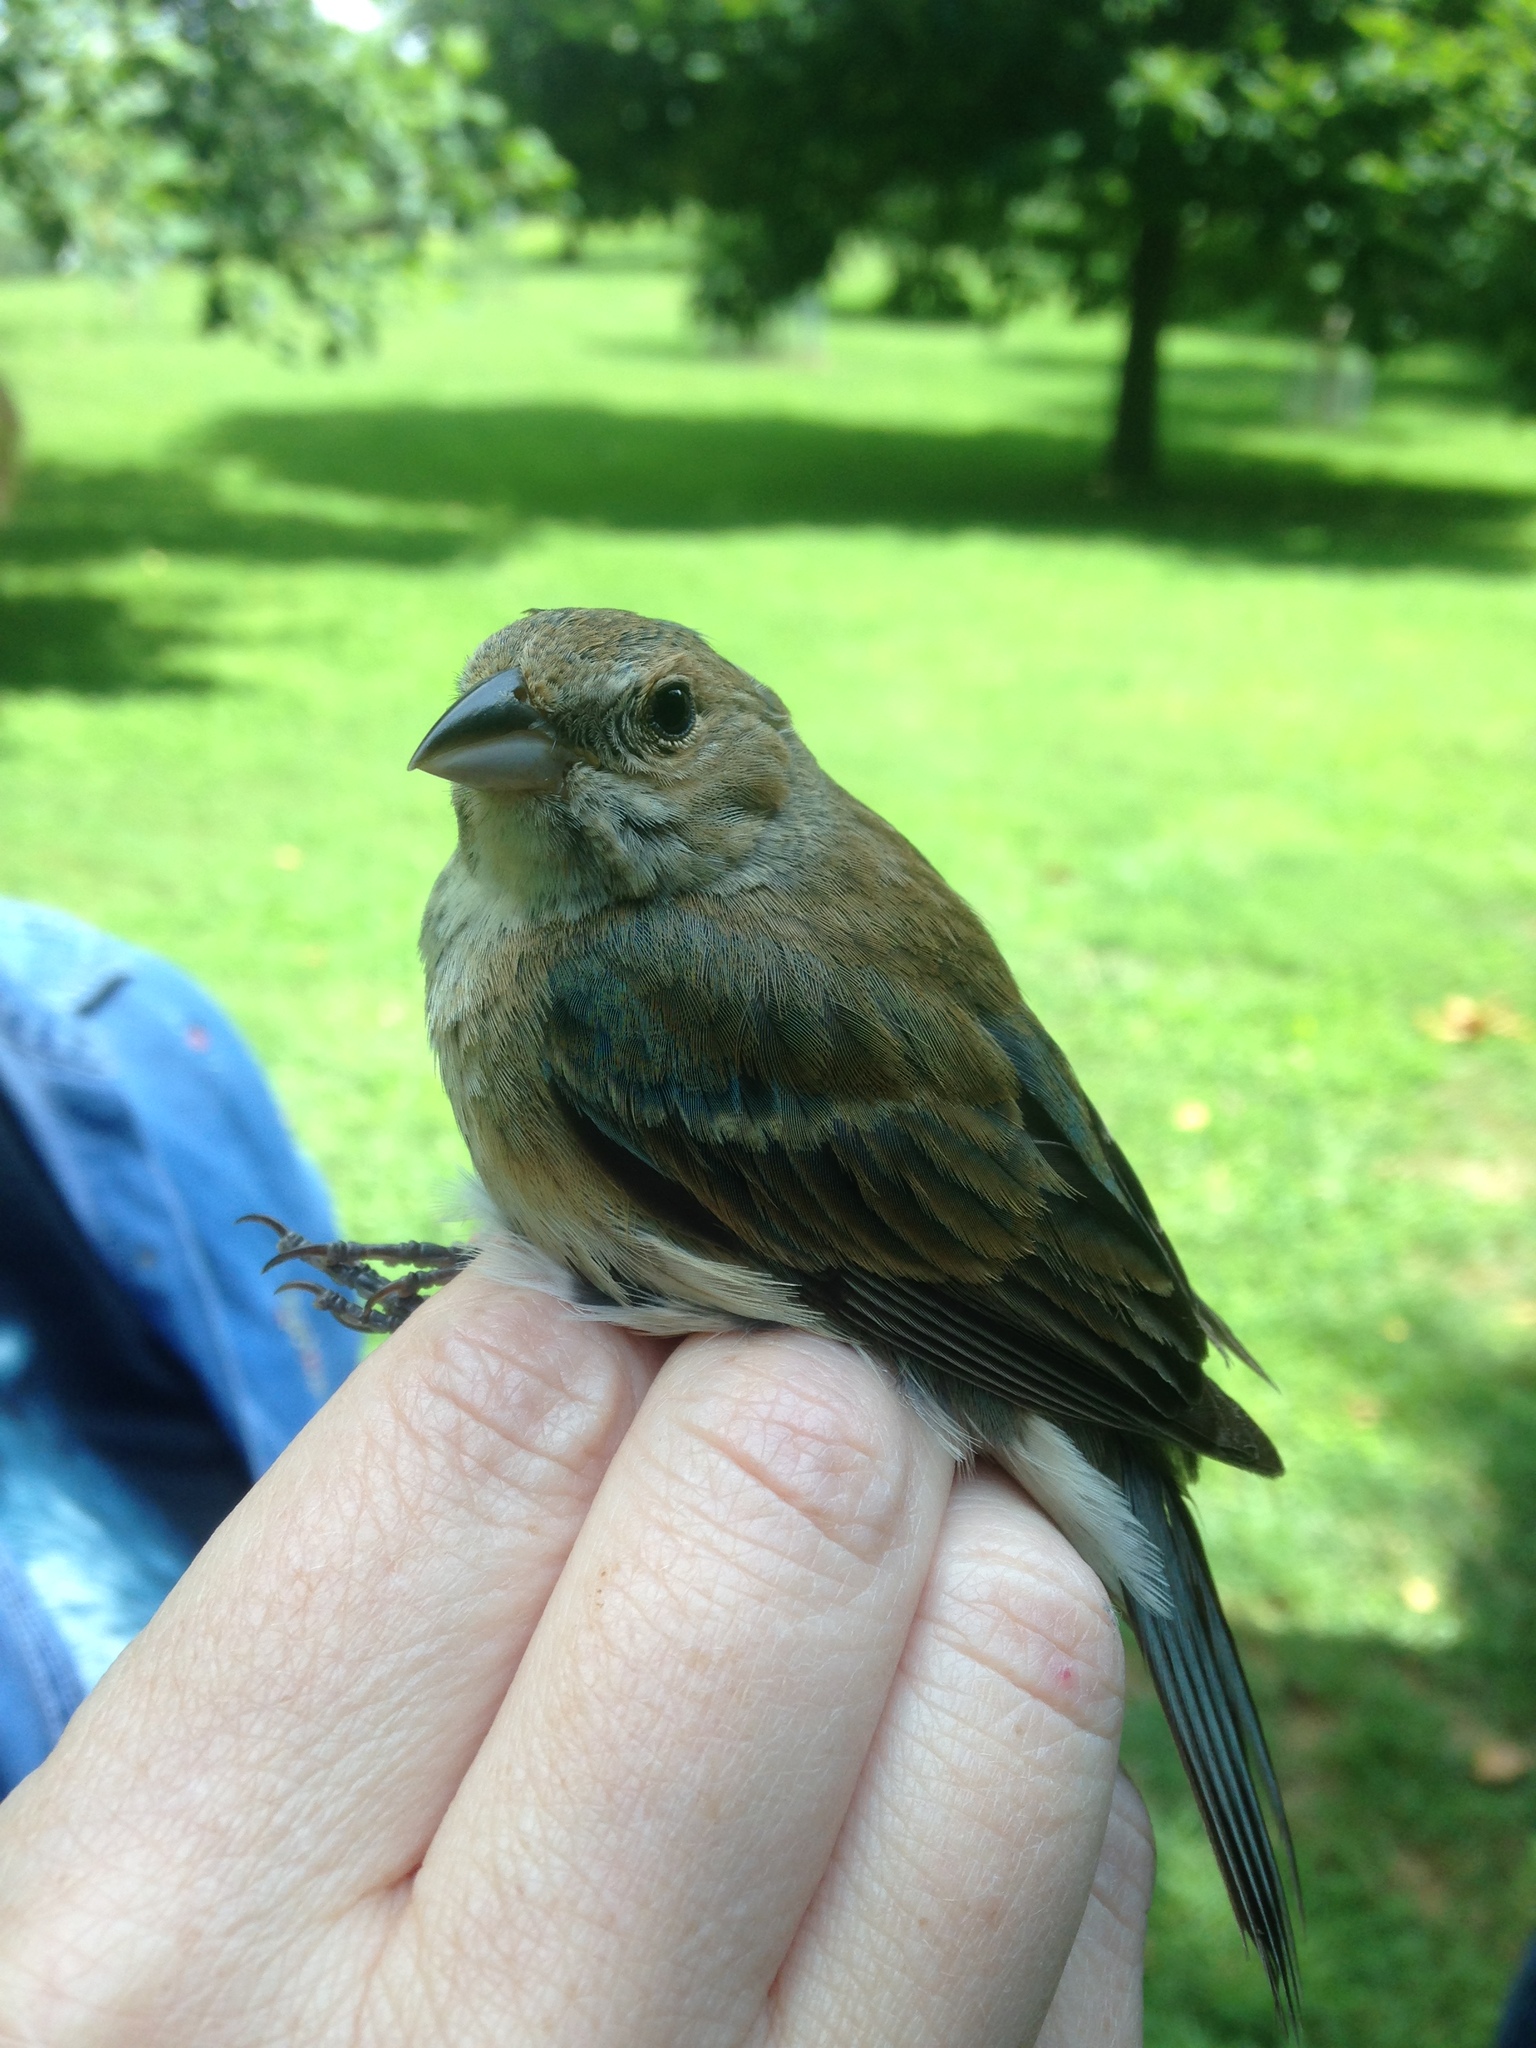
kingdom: Animalia
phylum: Chordata
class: Aves
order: Passeriformes
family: Cardinalidae
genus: Passerina
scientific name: Passerina cyanea
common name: Indigo bunting
